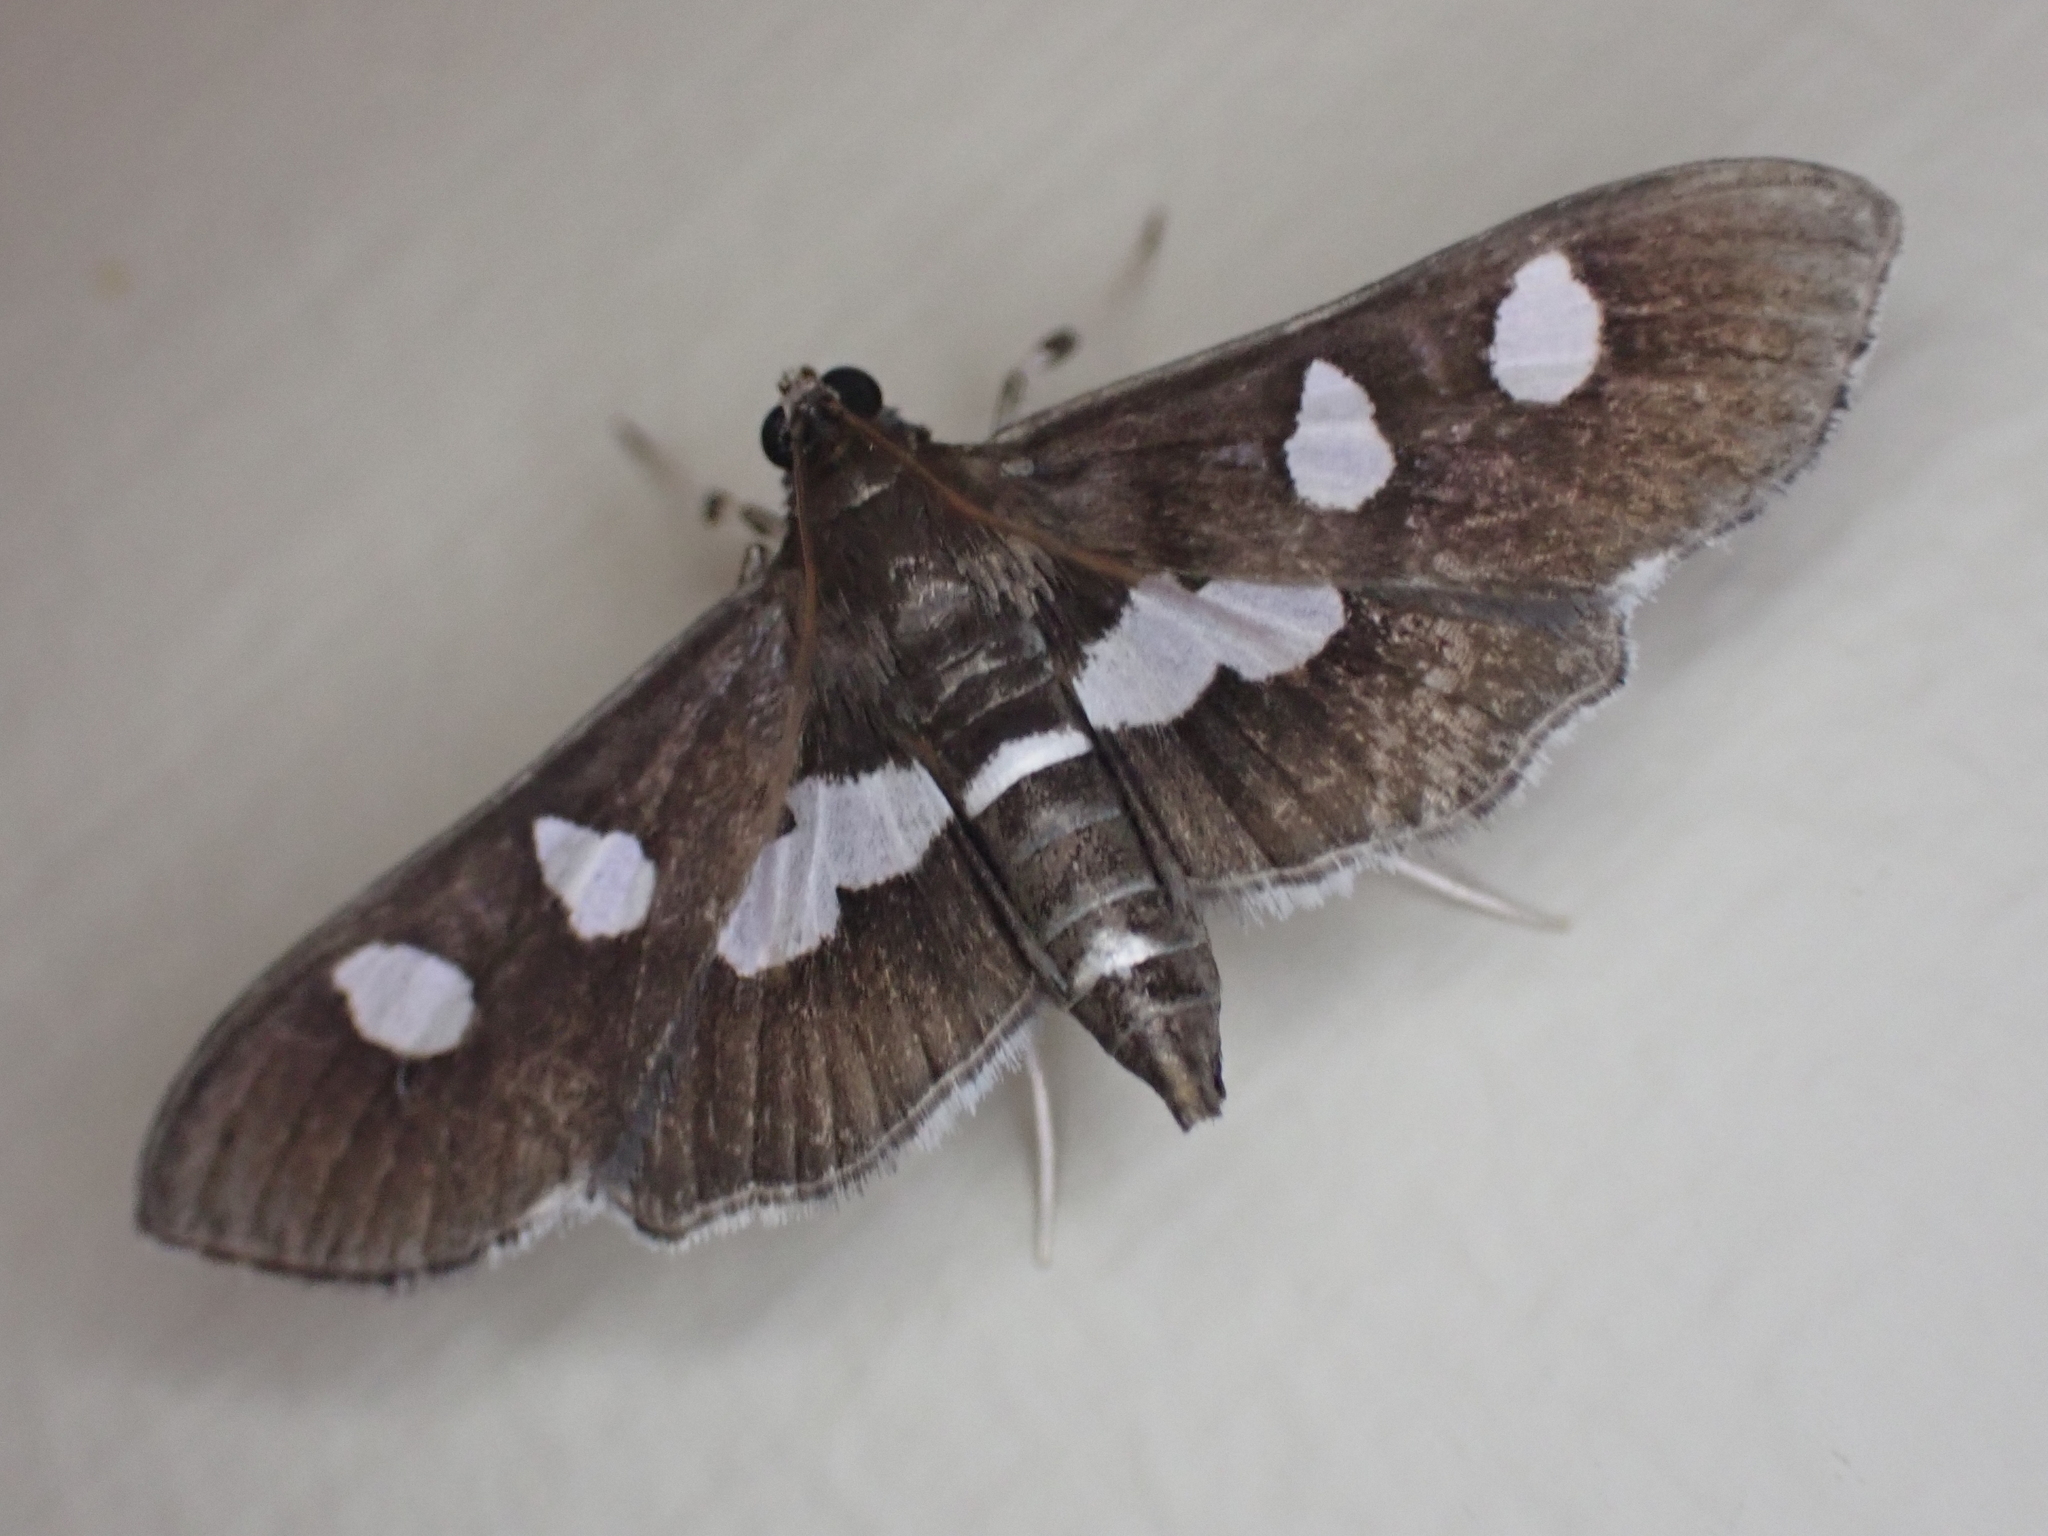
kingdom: Animalia
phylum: Arthropoda
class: Insecta
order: Lepidoptera
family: Crambidae
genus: Desmia
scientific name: Desmia
